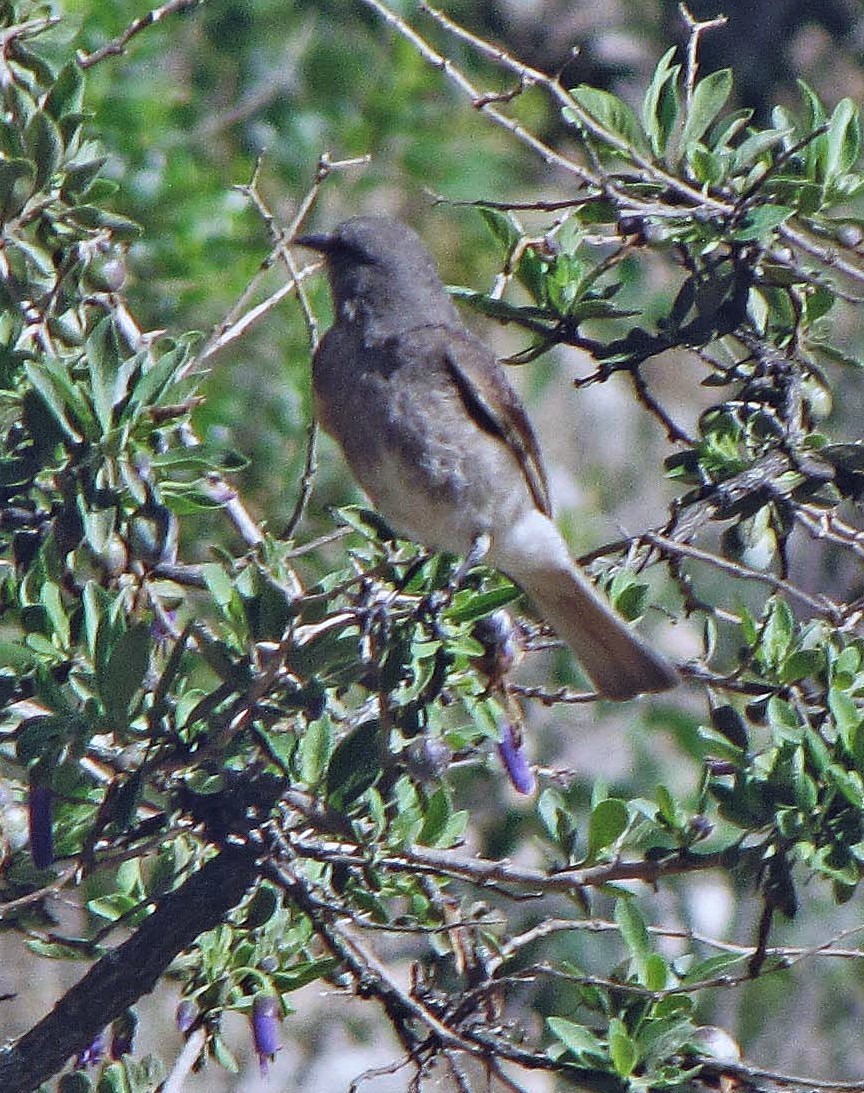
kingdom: Animalia
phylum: Chordata
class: Aves
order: Passeriformes
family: Tyrannidae
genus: Polioxolmis
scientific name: Polioxolmis rufipennis
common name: Rufous-webbed bush-tyrant
